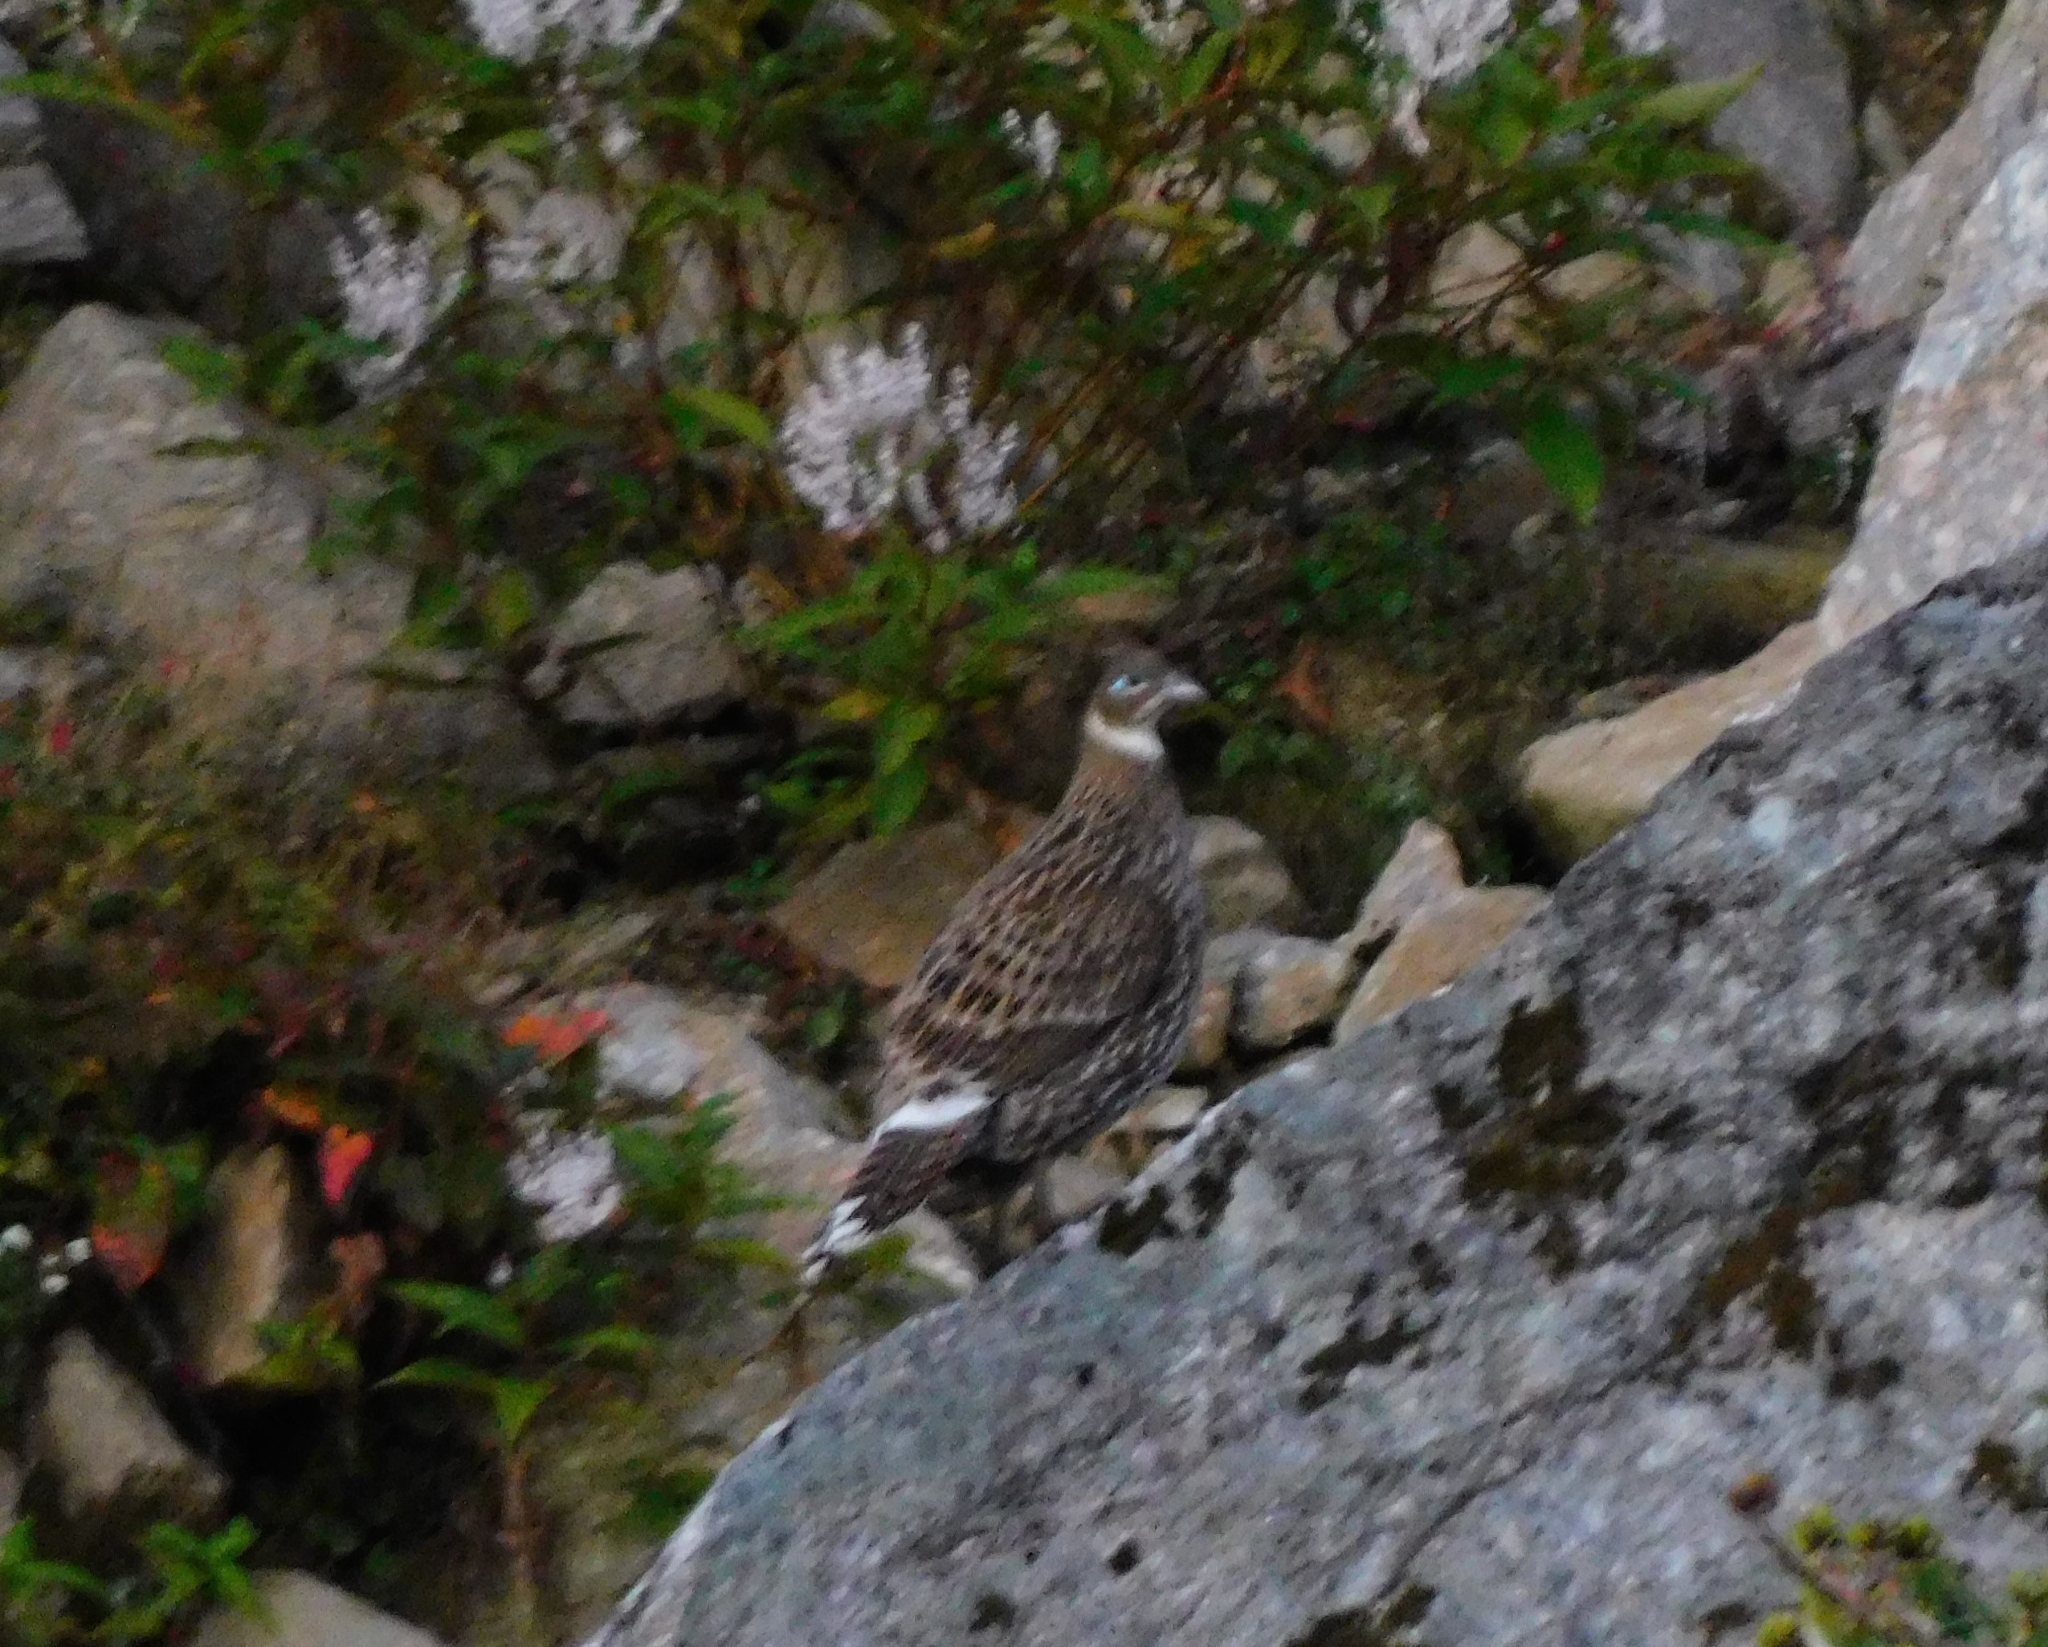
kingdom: Animalia
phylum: Chordata
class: Aves
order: Galliformes
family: Phasianidae
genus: Lophophorus
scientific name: Lophophorus impejanus
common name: Himalayan monal
